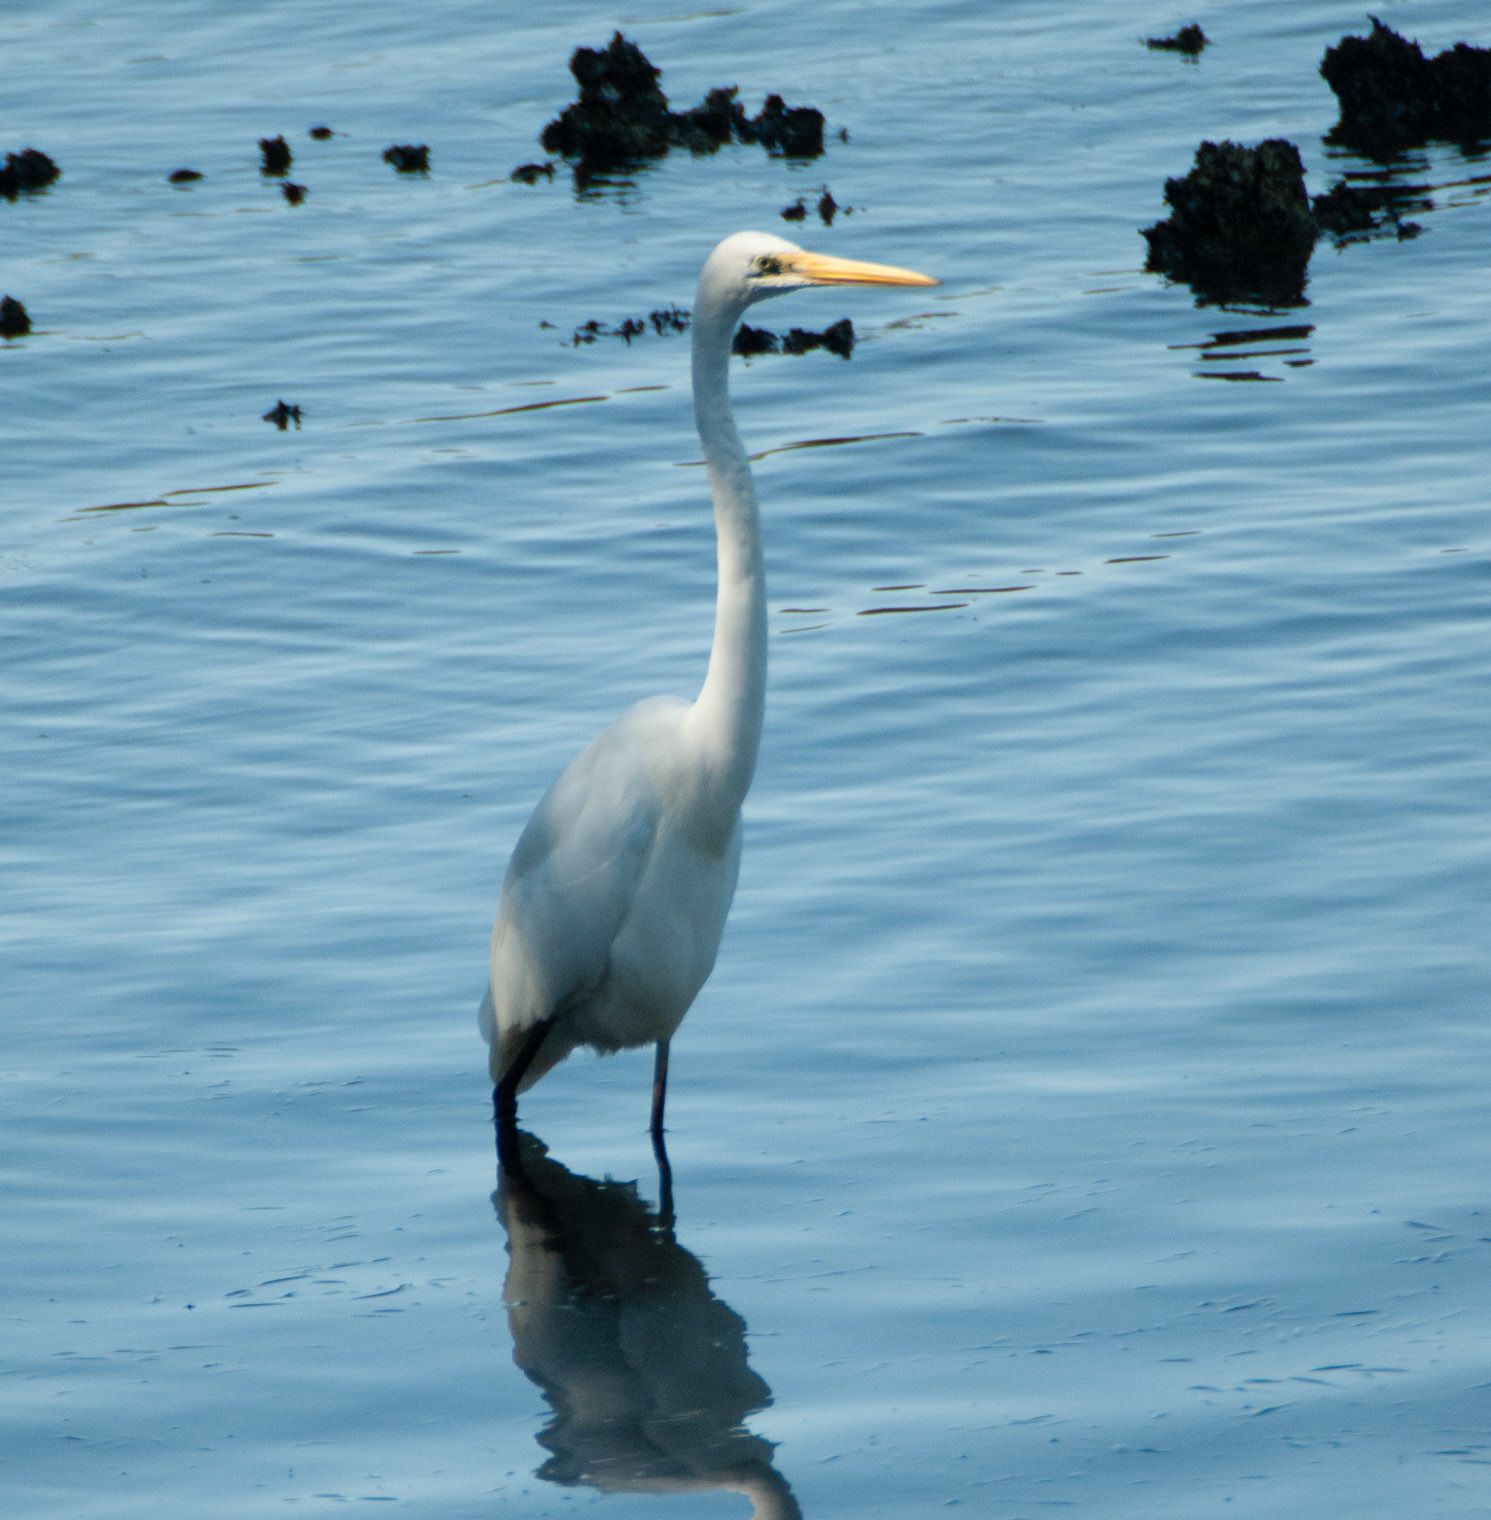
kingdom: Animalia
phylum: Chordata
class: Aves
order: Pelecaniformes
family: Ardeidae
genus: Ardea
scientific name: Ardea alba
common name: Great egret
